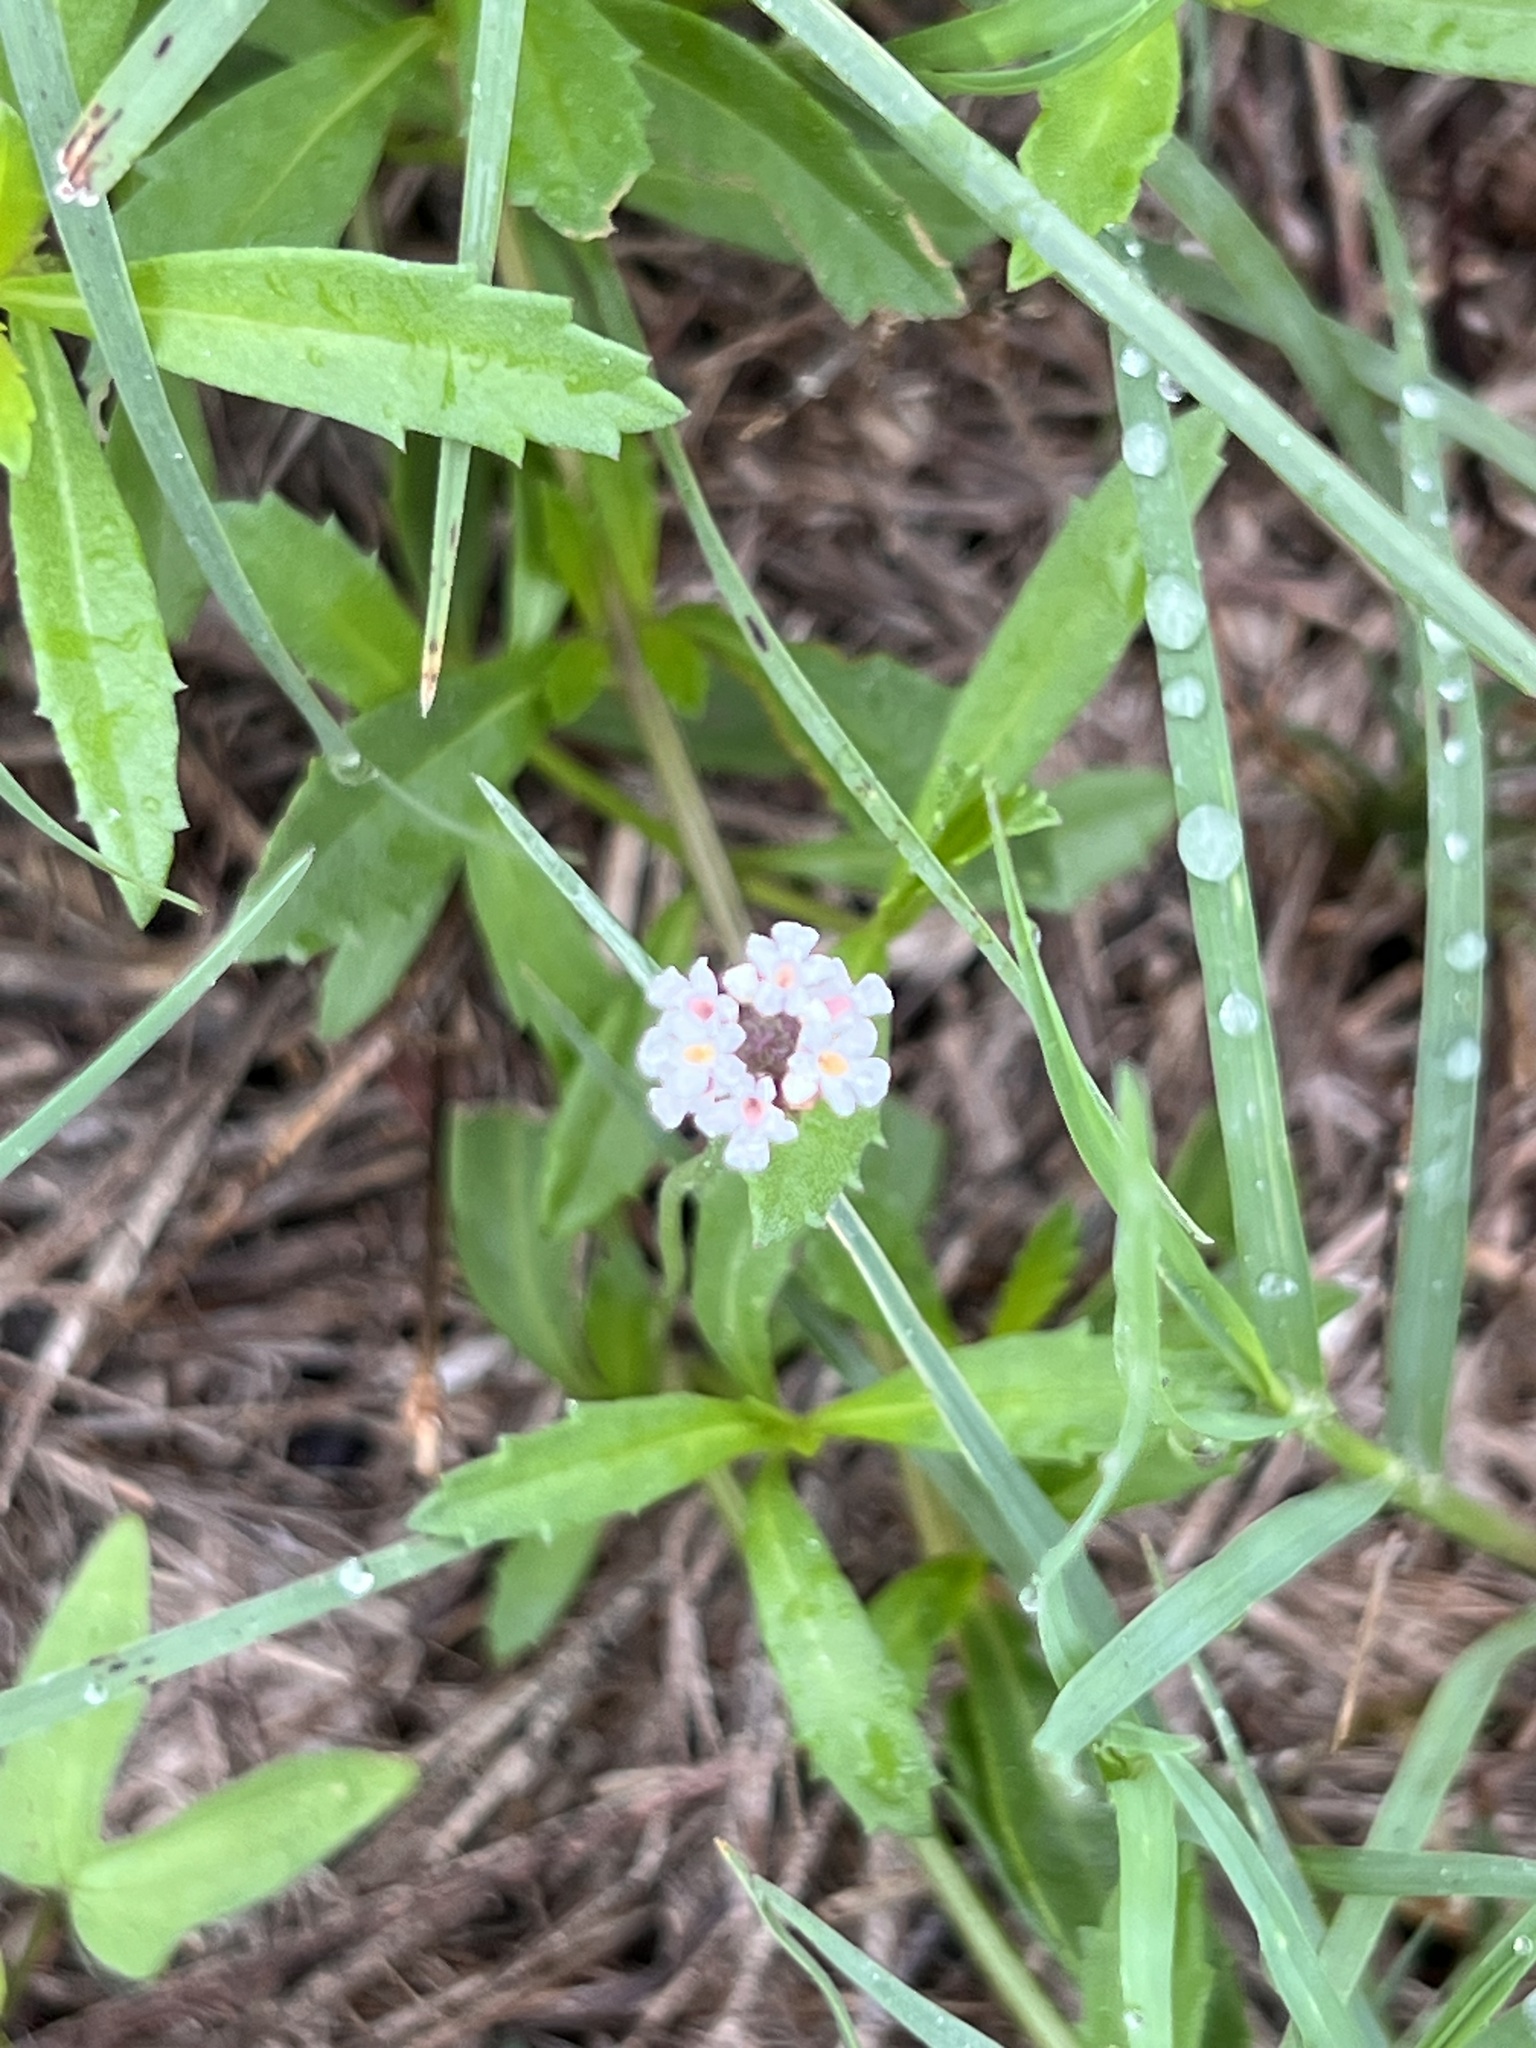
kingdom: Plantae
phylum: Tracheophyta
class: Magnoliopsida
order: Lamiales
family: Verbenaceae
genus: Phyla
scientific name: Phyla nodiflora
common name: Frogfruit
